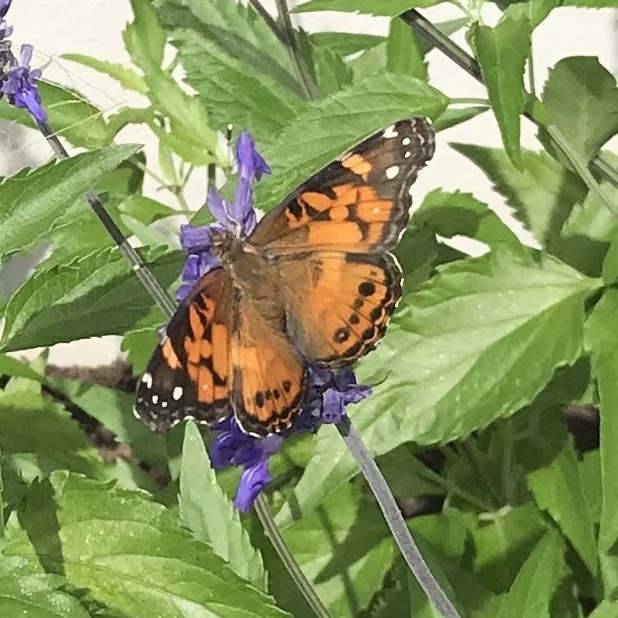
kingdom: Animalia
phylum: Arthropoda
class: Insecta
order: Lepidoptera
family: Nymphalidae
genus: Vanessa
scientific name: Vanessa virginiensis
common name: American lady
